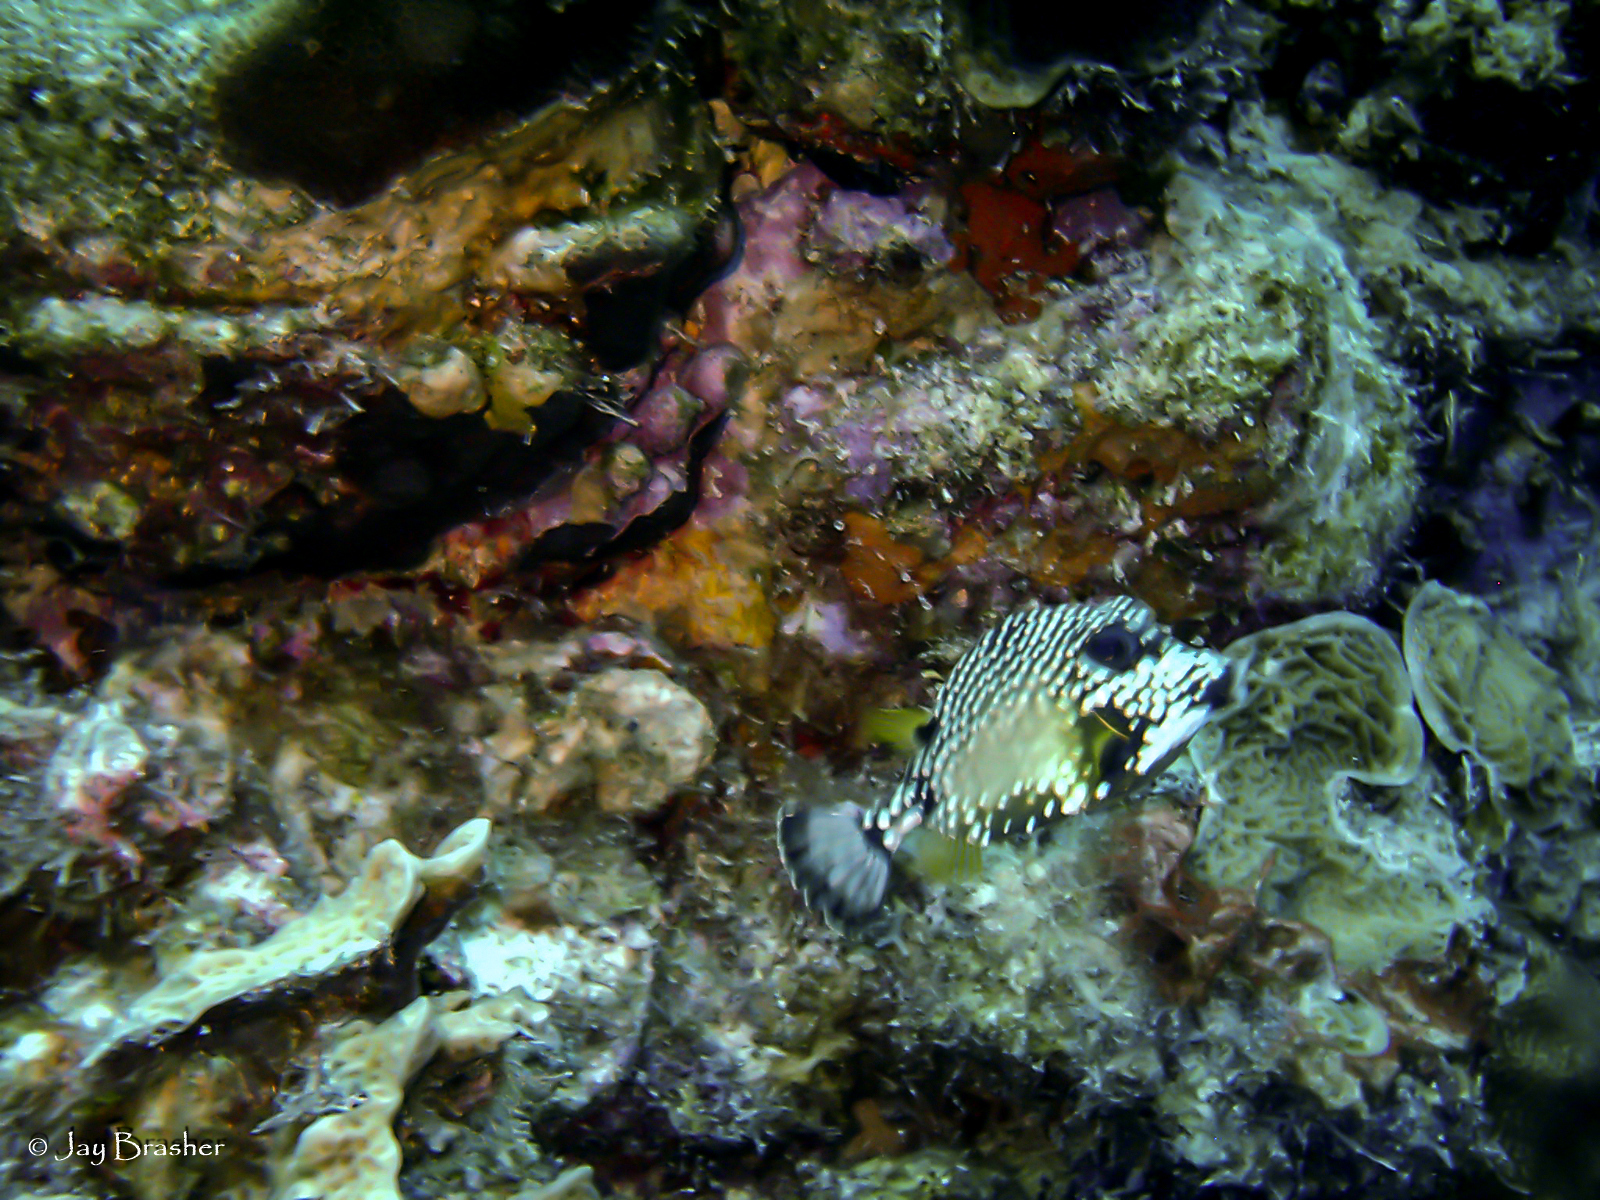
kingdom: Animalia
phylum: Chordata
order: Tetraodontiformes
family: Ostraciidae
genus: Lactophrys
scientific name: Lactophrys triqueter
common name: Smooth trunkfish
